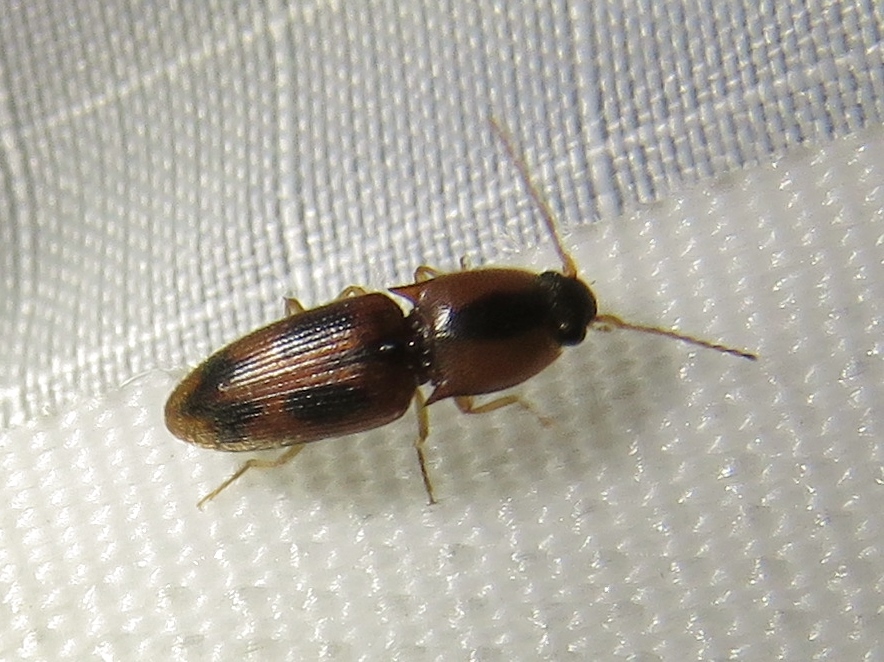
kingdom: Animalia
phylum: Arthropoda
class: Insecta
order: Coleoptera
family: Elateridae
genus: Aeolus
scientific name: Aeolus mellillus
